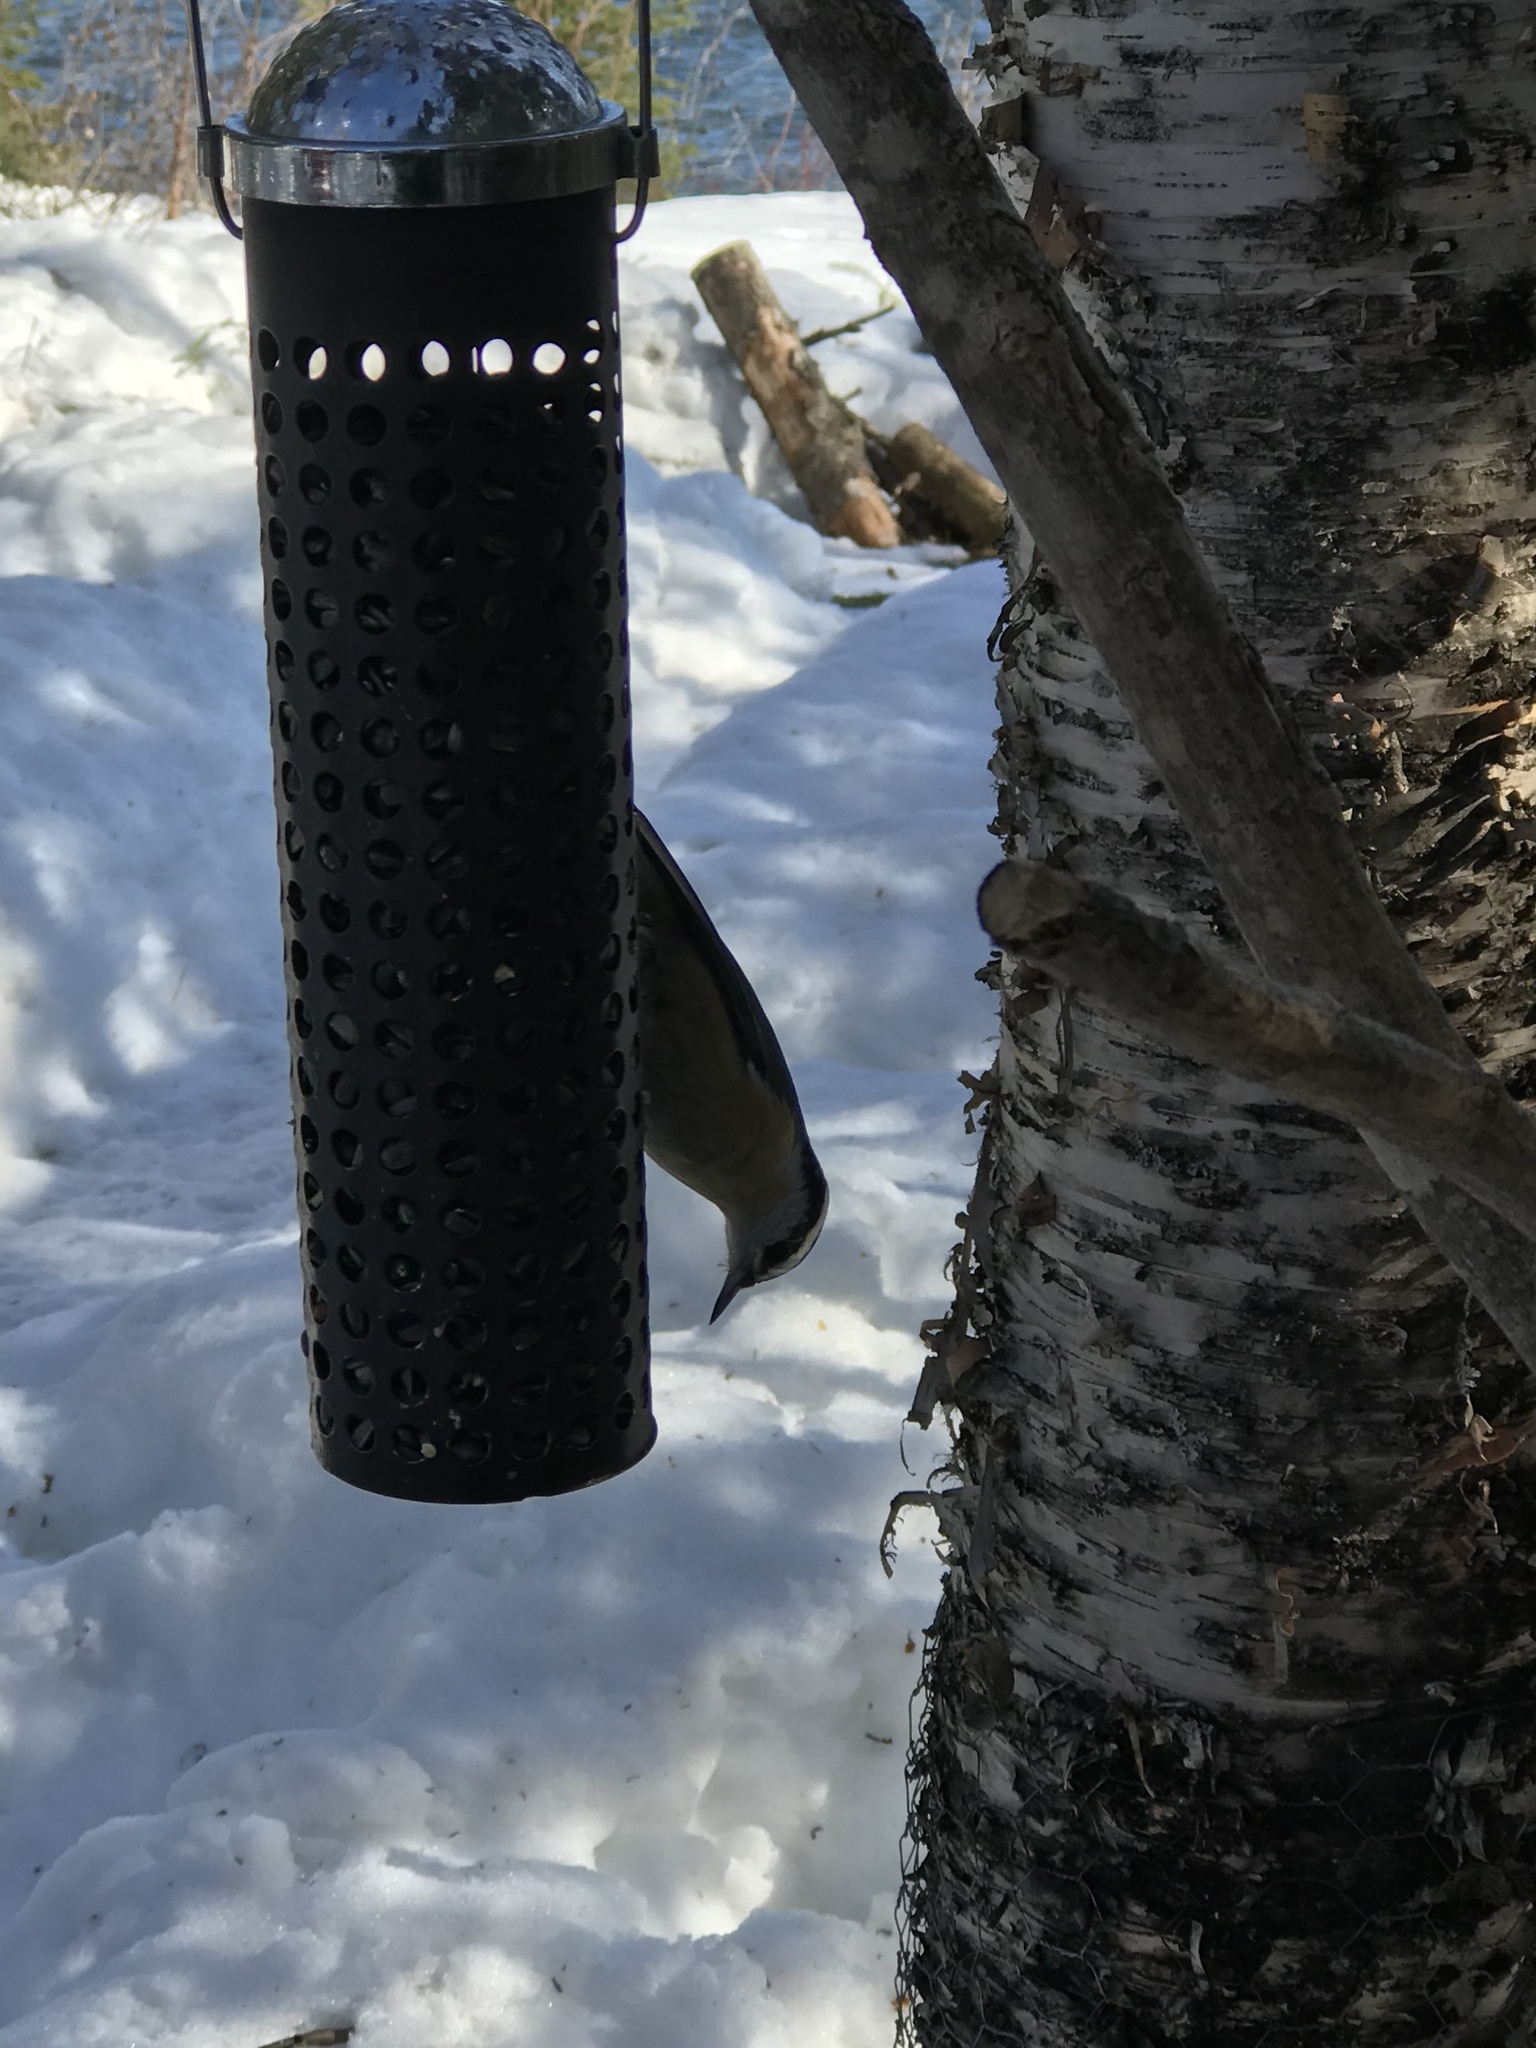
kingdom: Animalia
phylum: Chordata
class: Aves
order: Passeriformes
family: Sittidae
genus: Sitta
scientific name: Sitta canadensis
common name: Red-breasted nuthatch
